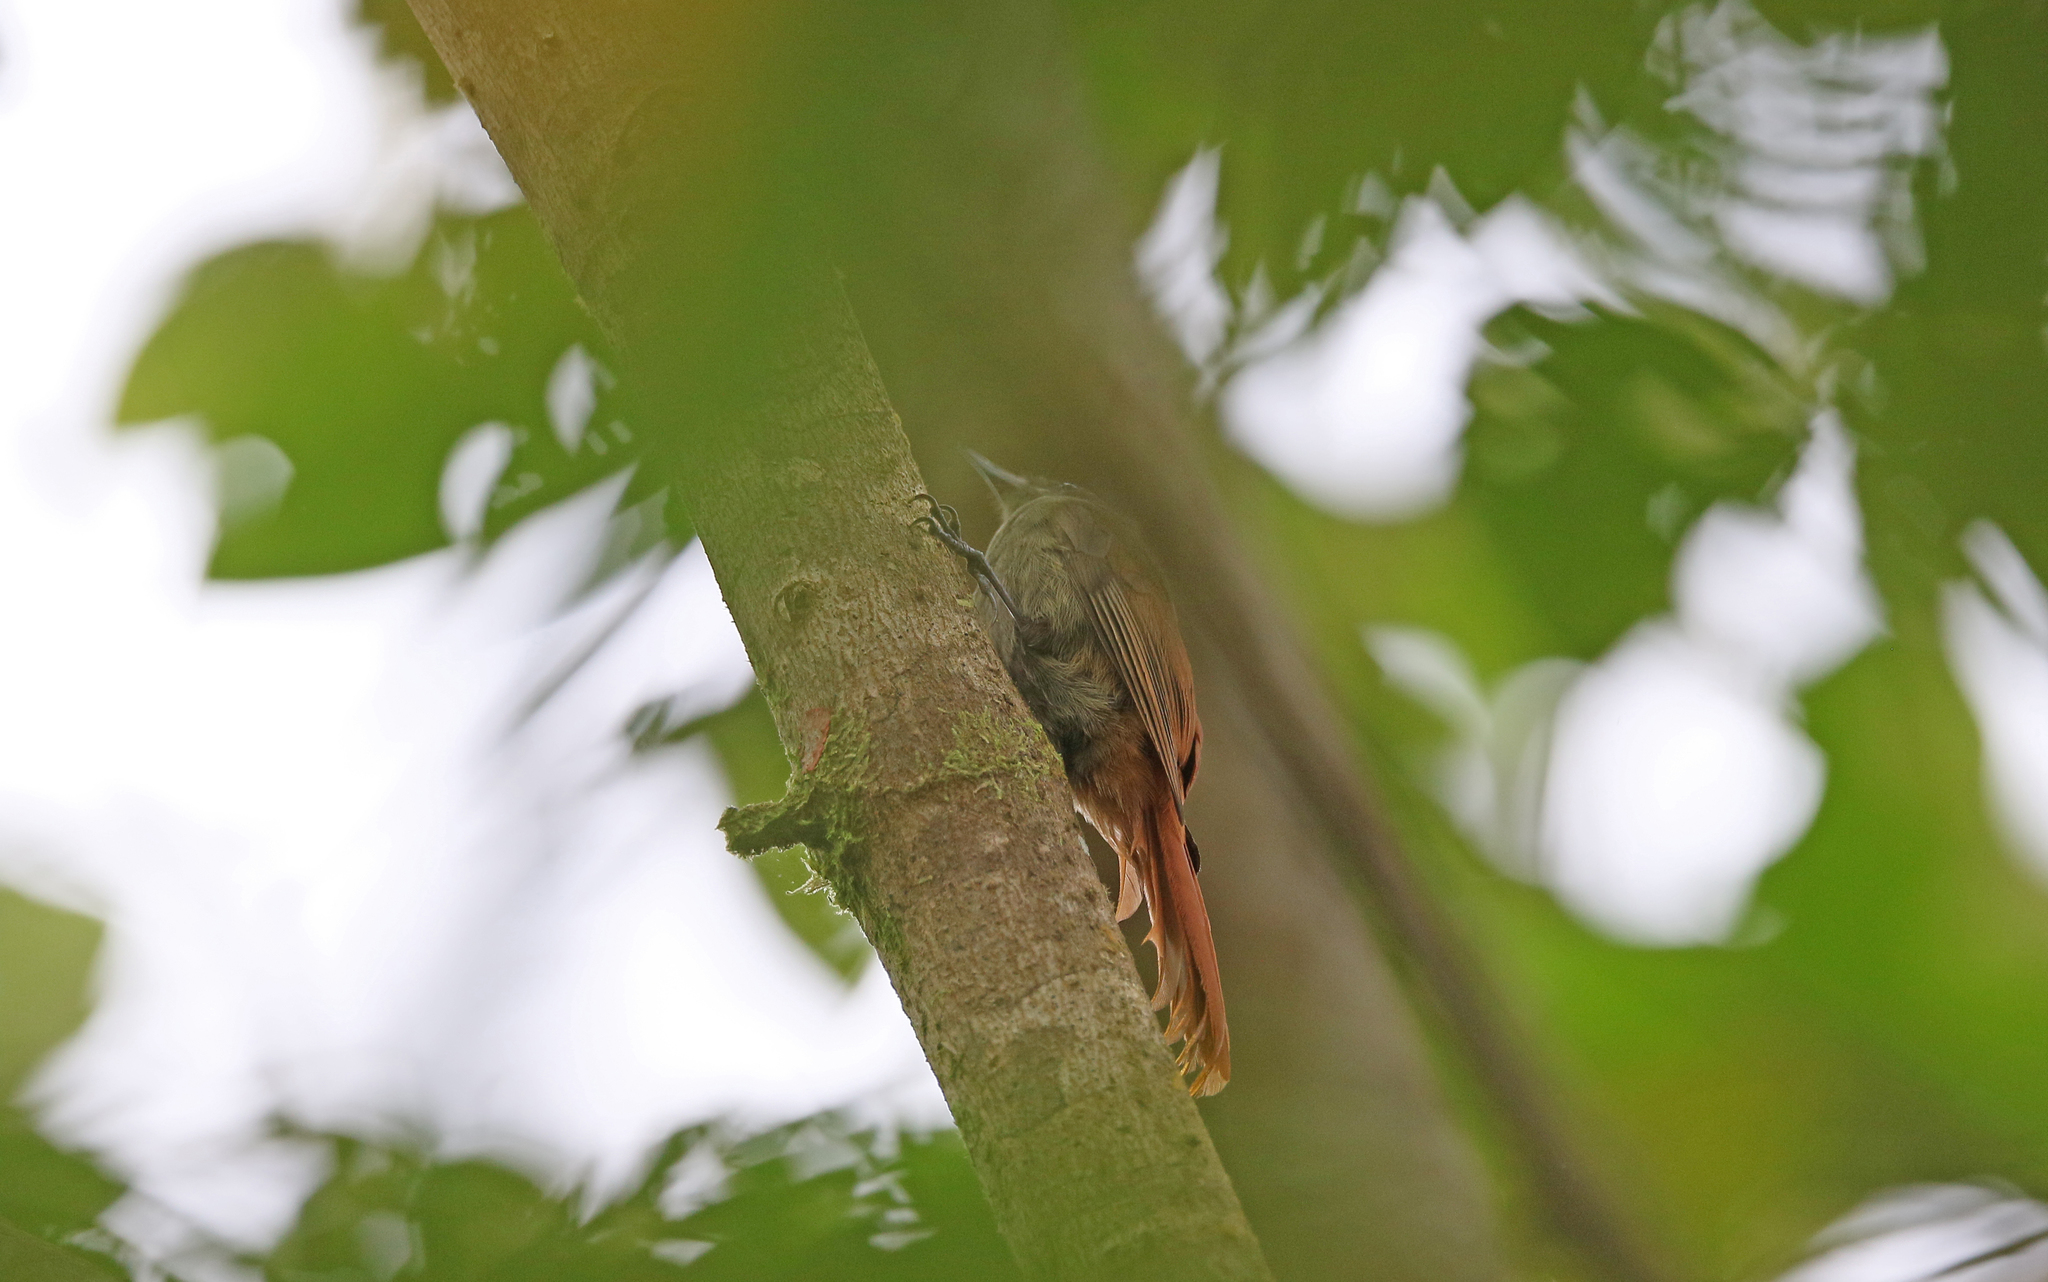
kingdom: Animalia
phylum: Chordata
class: Aves
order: Passeriformes
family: Furnariidae
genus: Sittasomus
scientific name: Sittasomus griseicapillus
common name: Olivaceous woodcreeper
